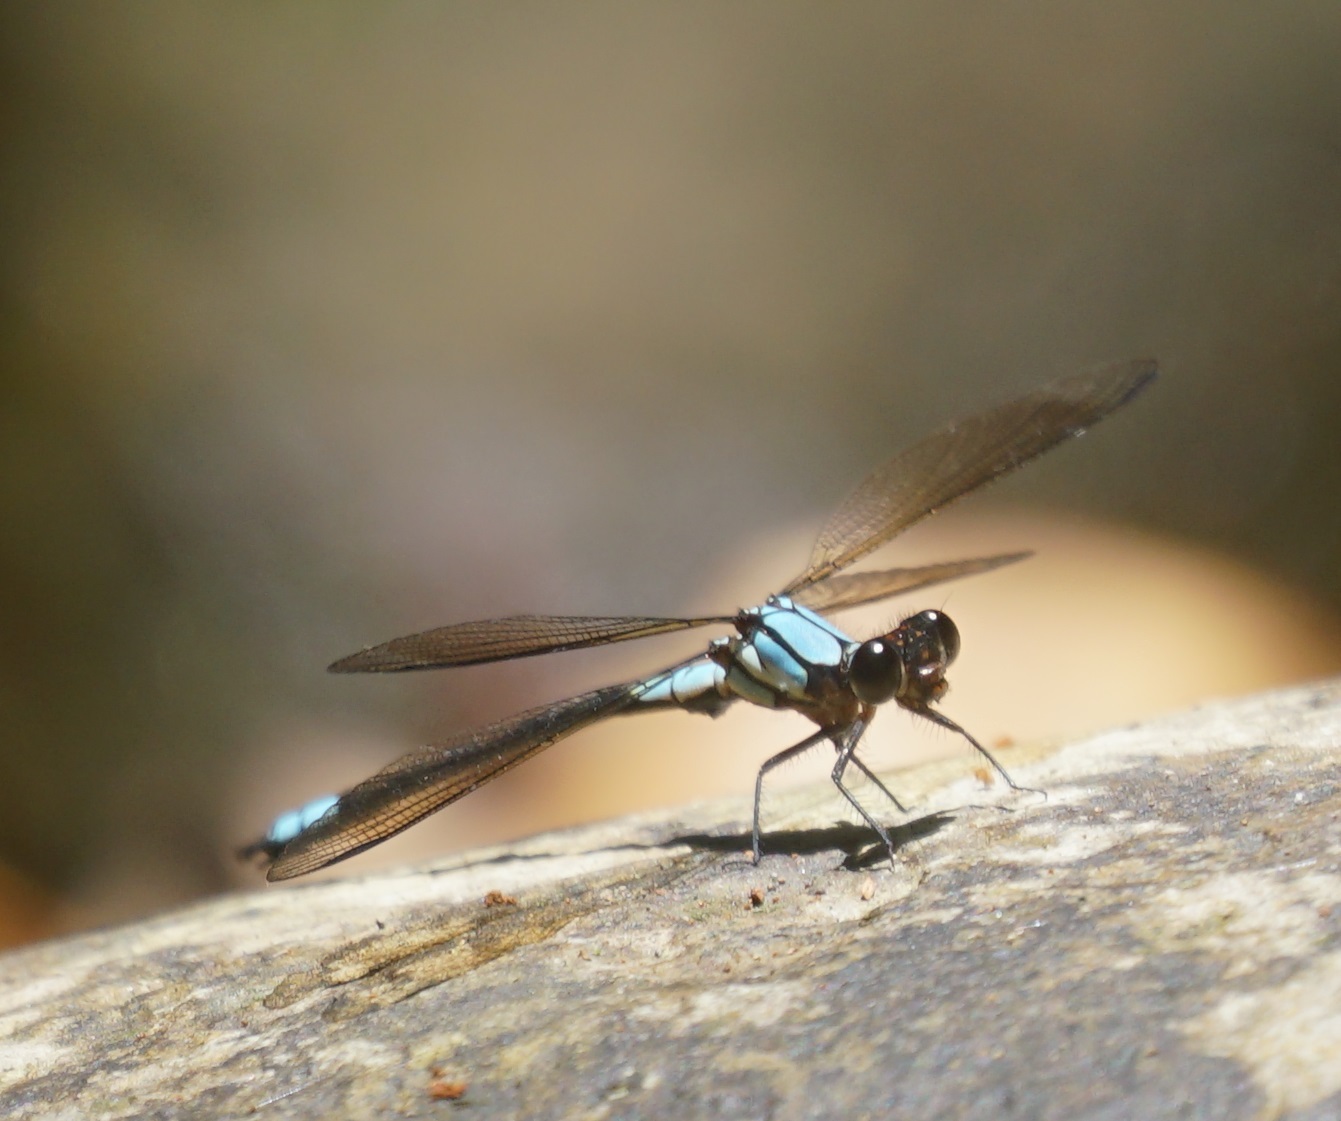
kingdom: Animalia
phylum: Arthropoda
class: Insecta
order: Odonata
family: Lestoideidae
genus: Diphlebia
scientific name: Diphlebia euphoeoides
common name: Tropical rockmaster
